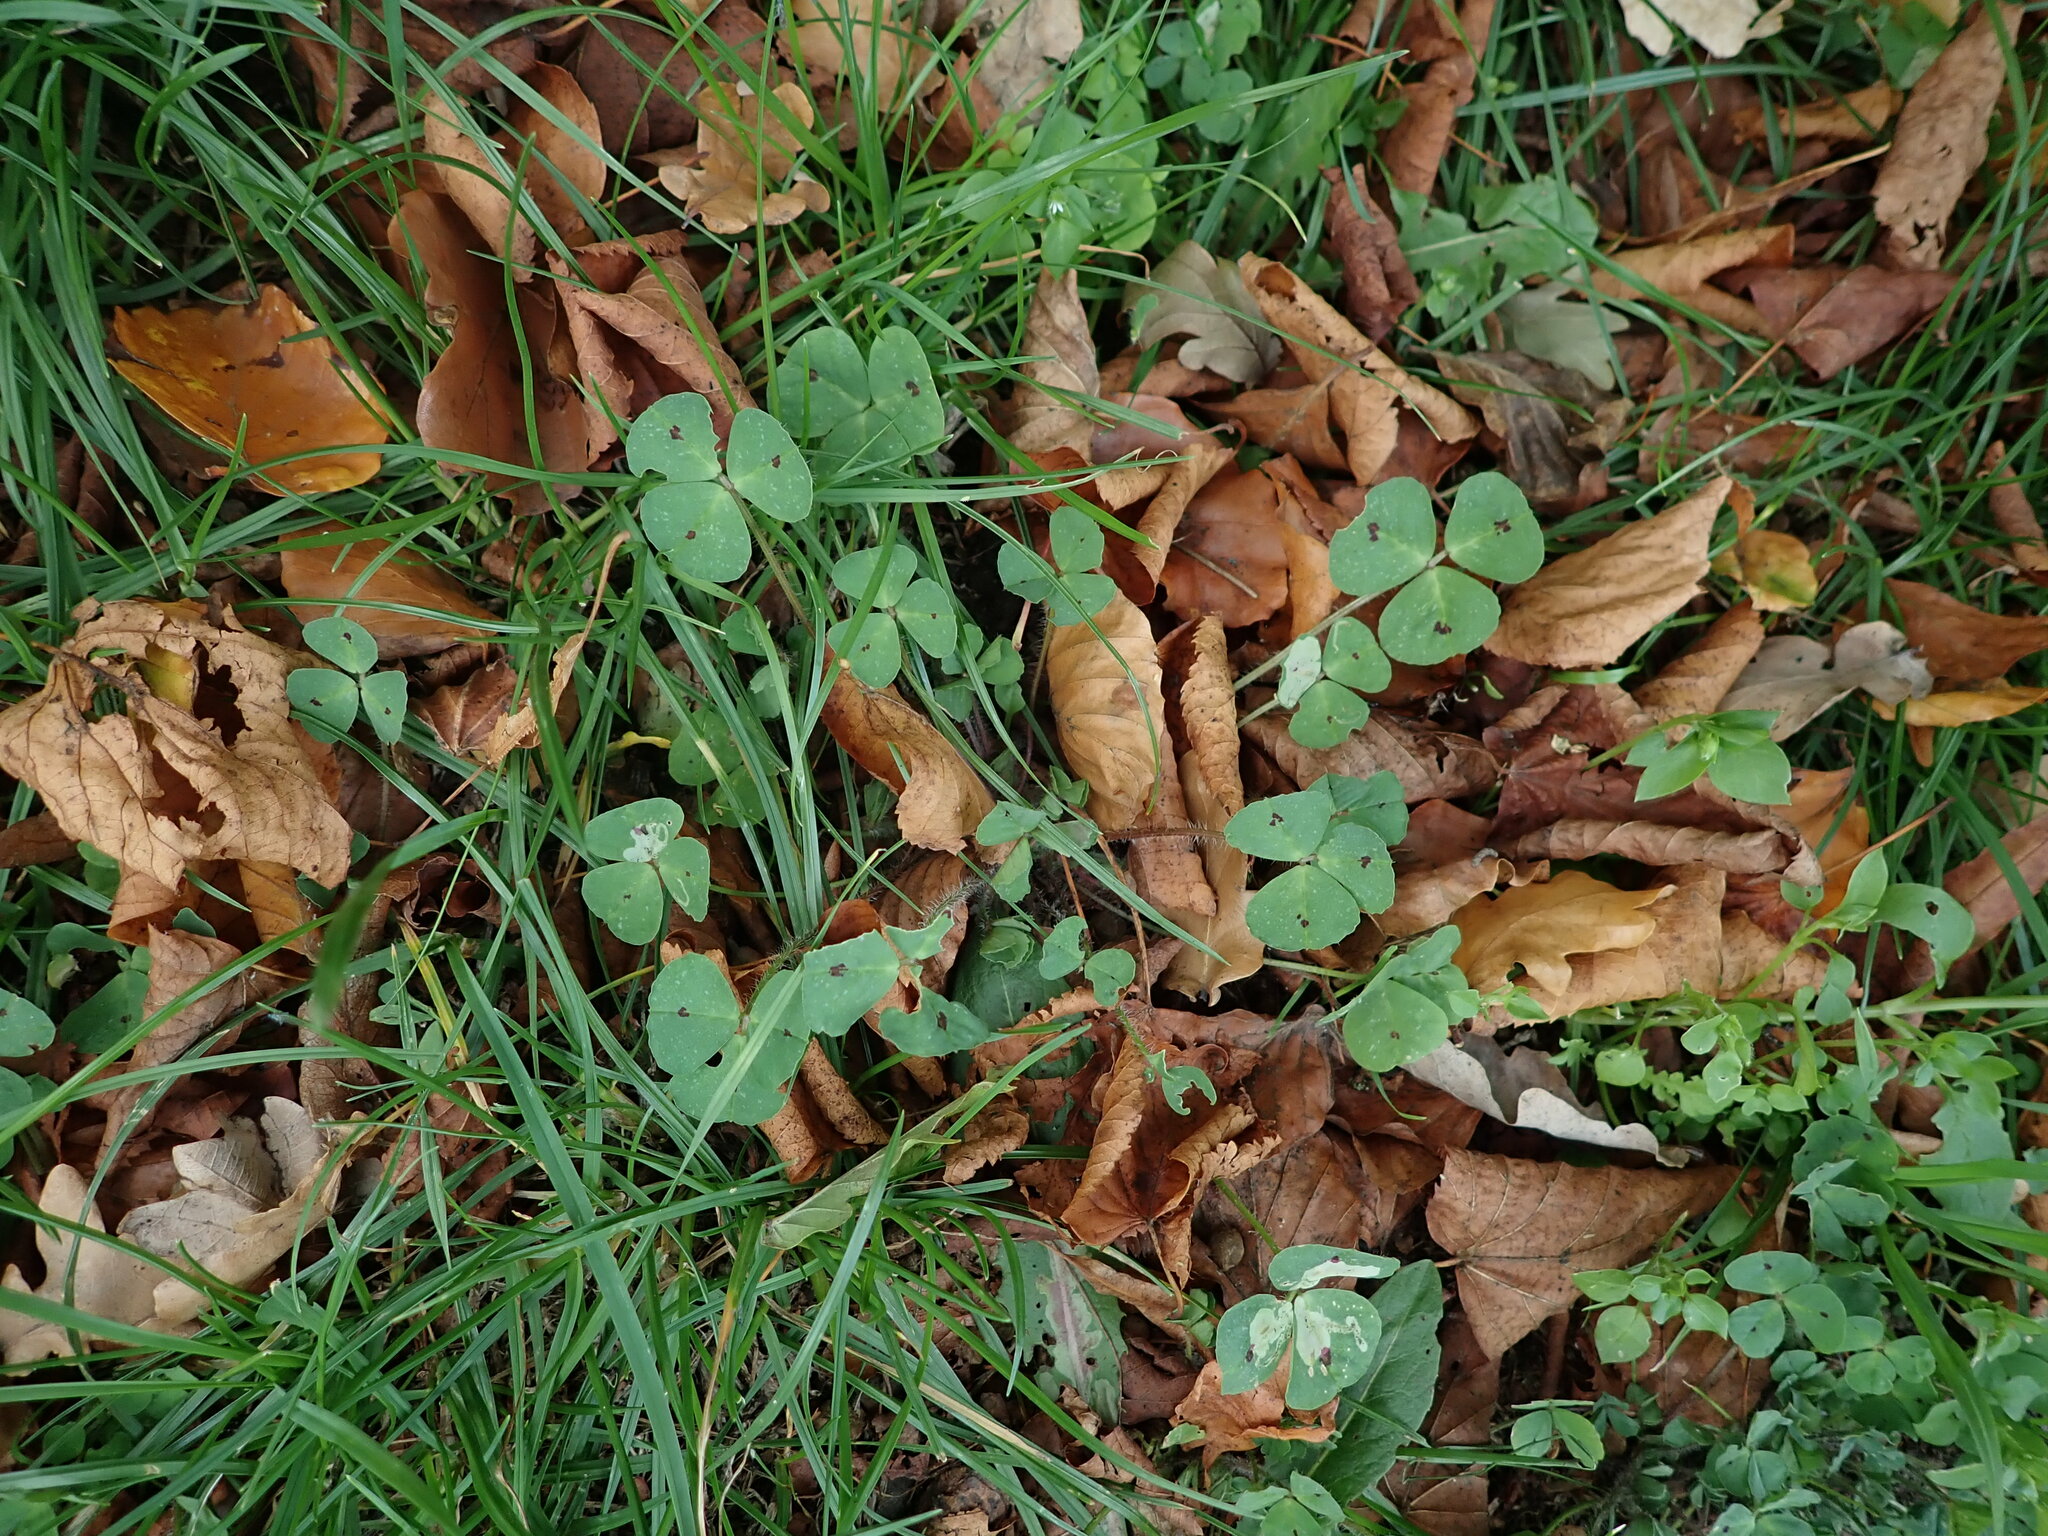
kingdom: Plantae
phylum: Tracheophyta
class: Magnoliopsida
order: Fabales
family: Fabaceae
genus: Medicago
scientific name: Medicago arabica
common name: Spotted medick
